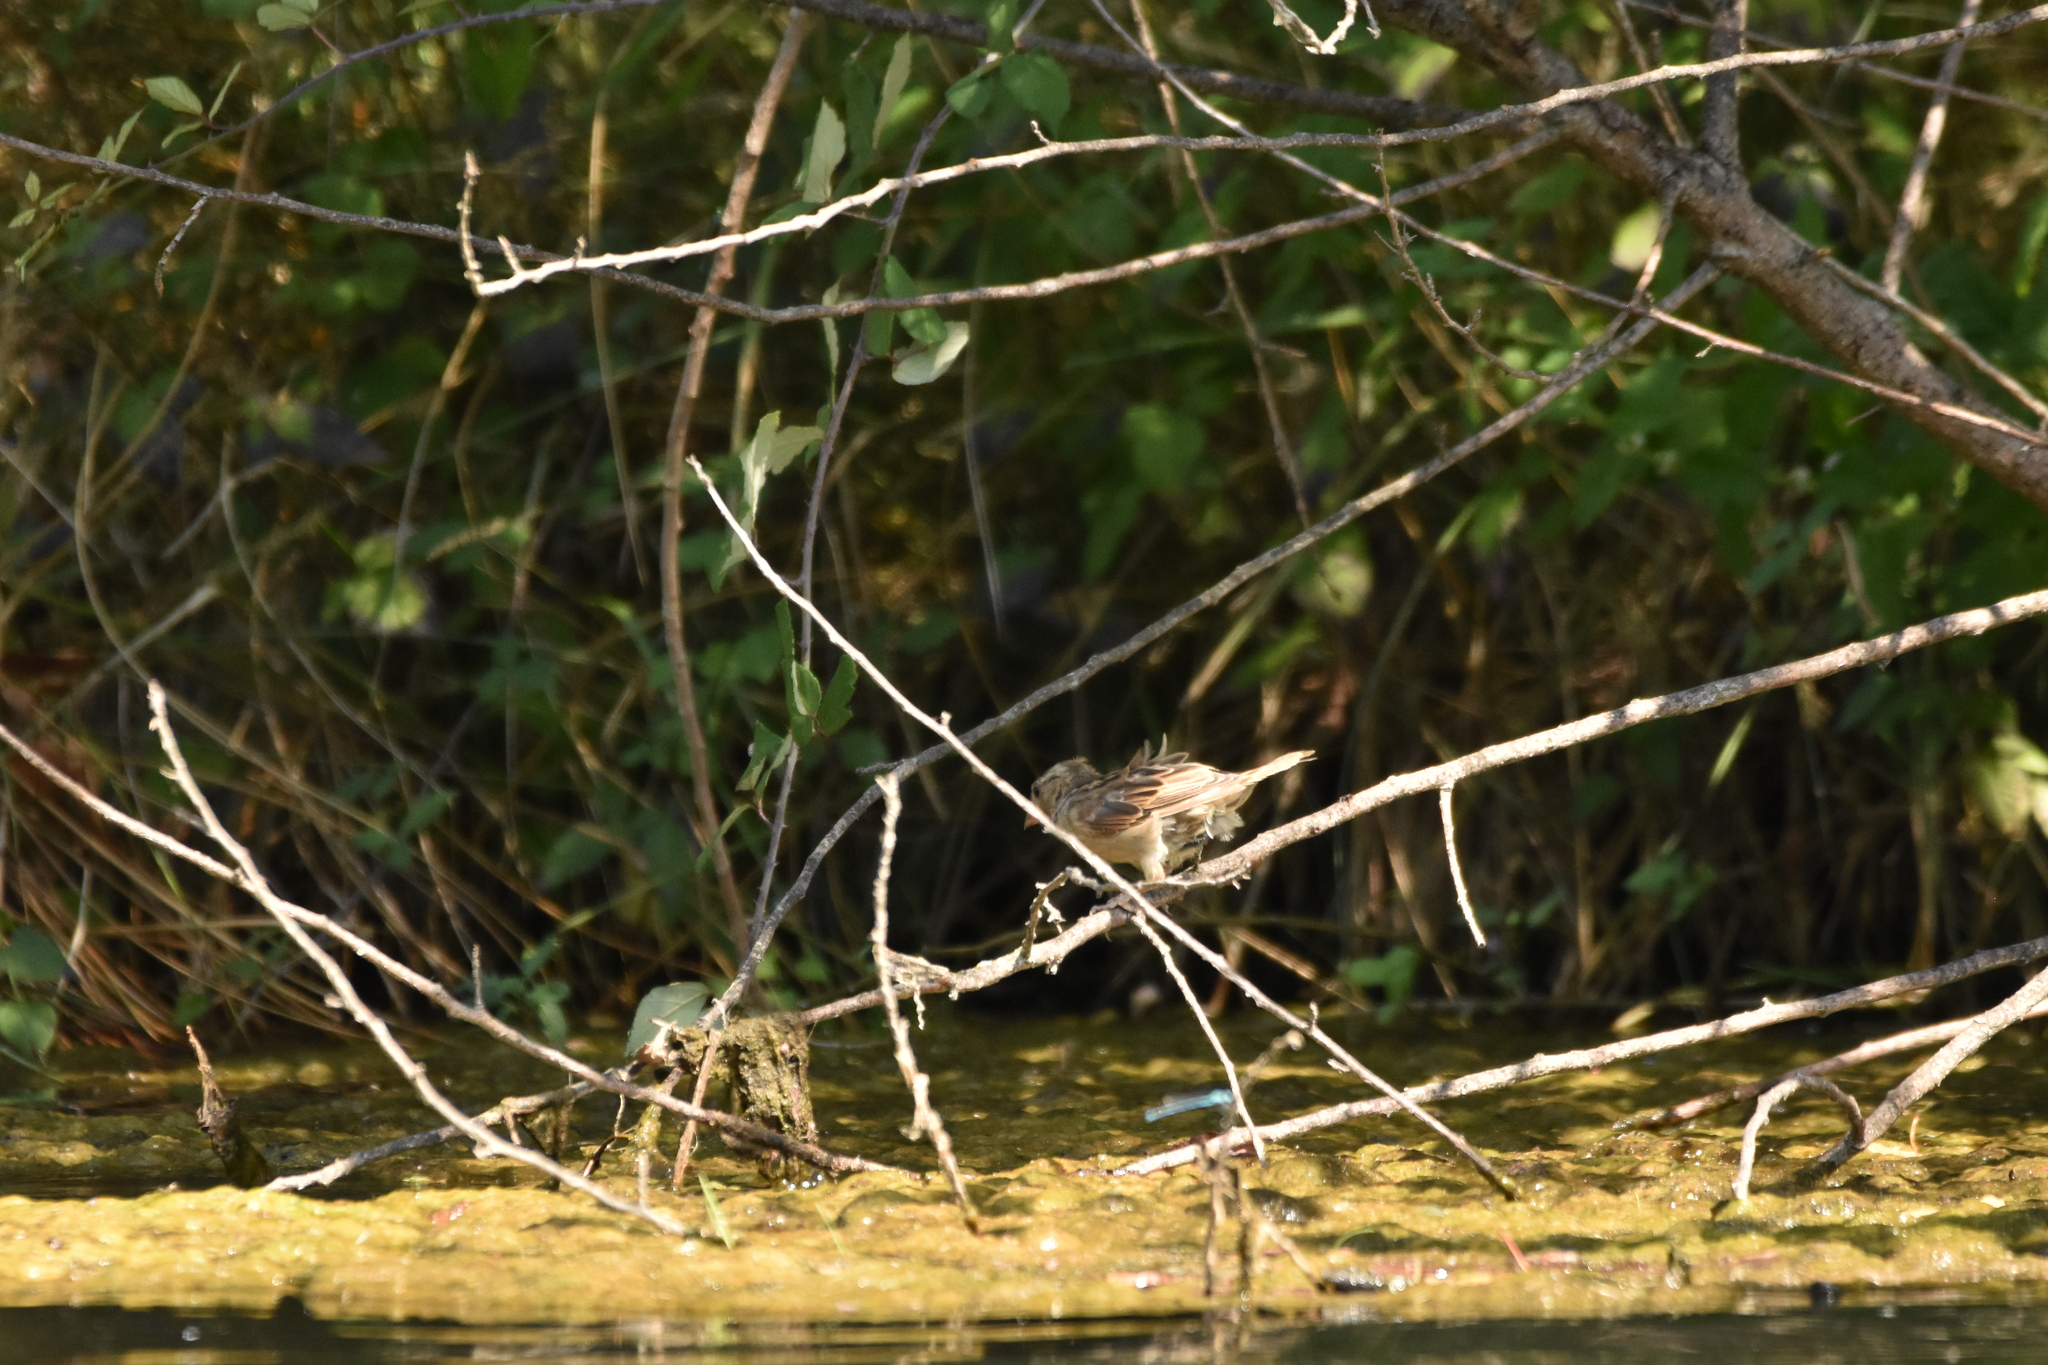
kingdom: Animalia
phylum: Chordata
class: Aves
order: Passeriformes
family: Passeridae
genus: Passer
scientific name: Passer domesticus
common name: House sparrow
